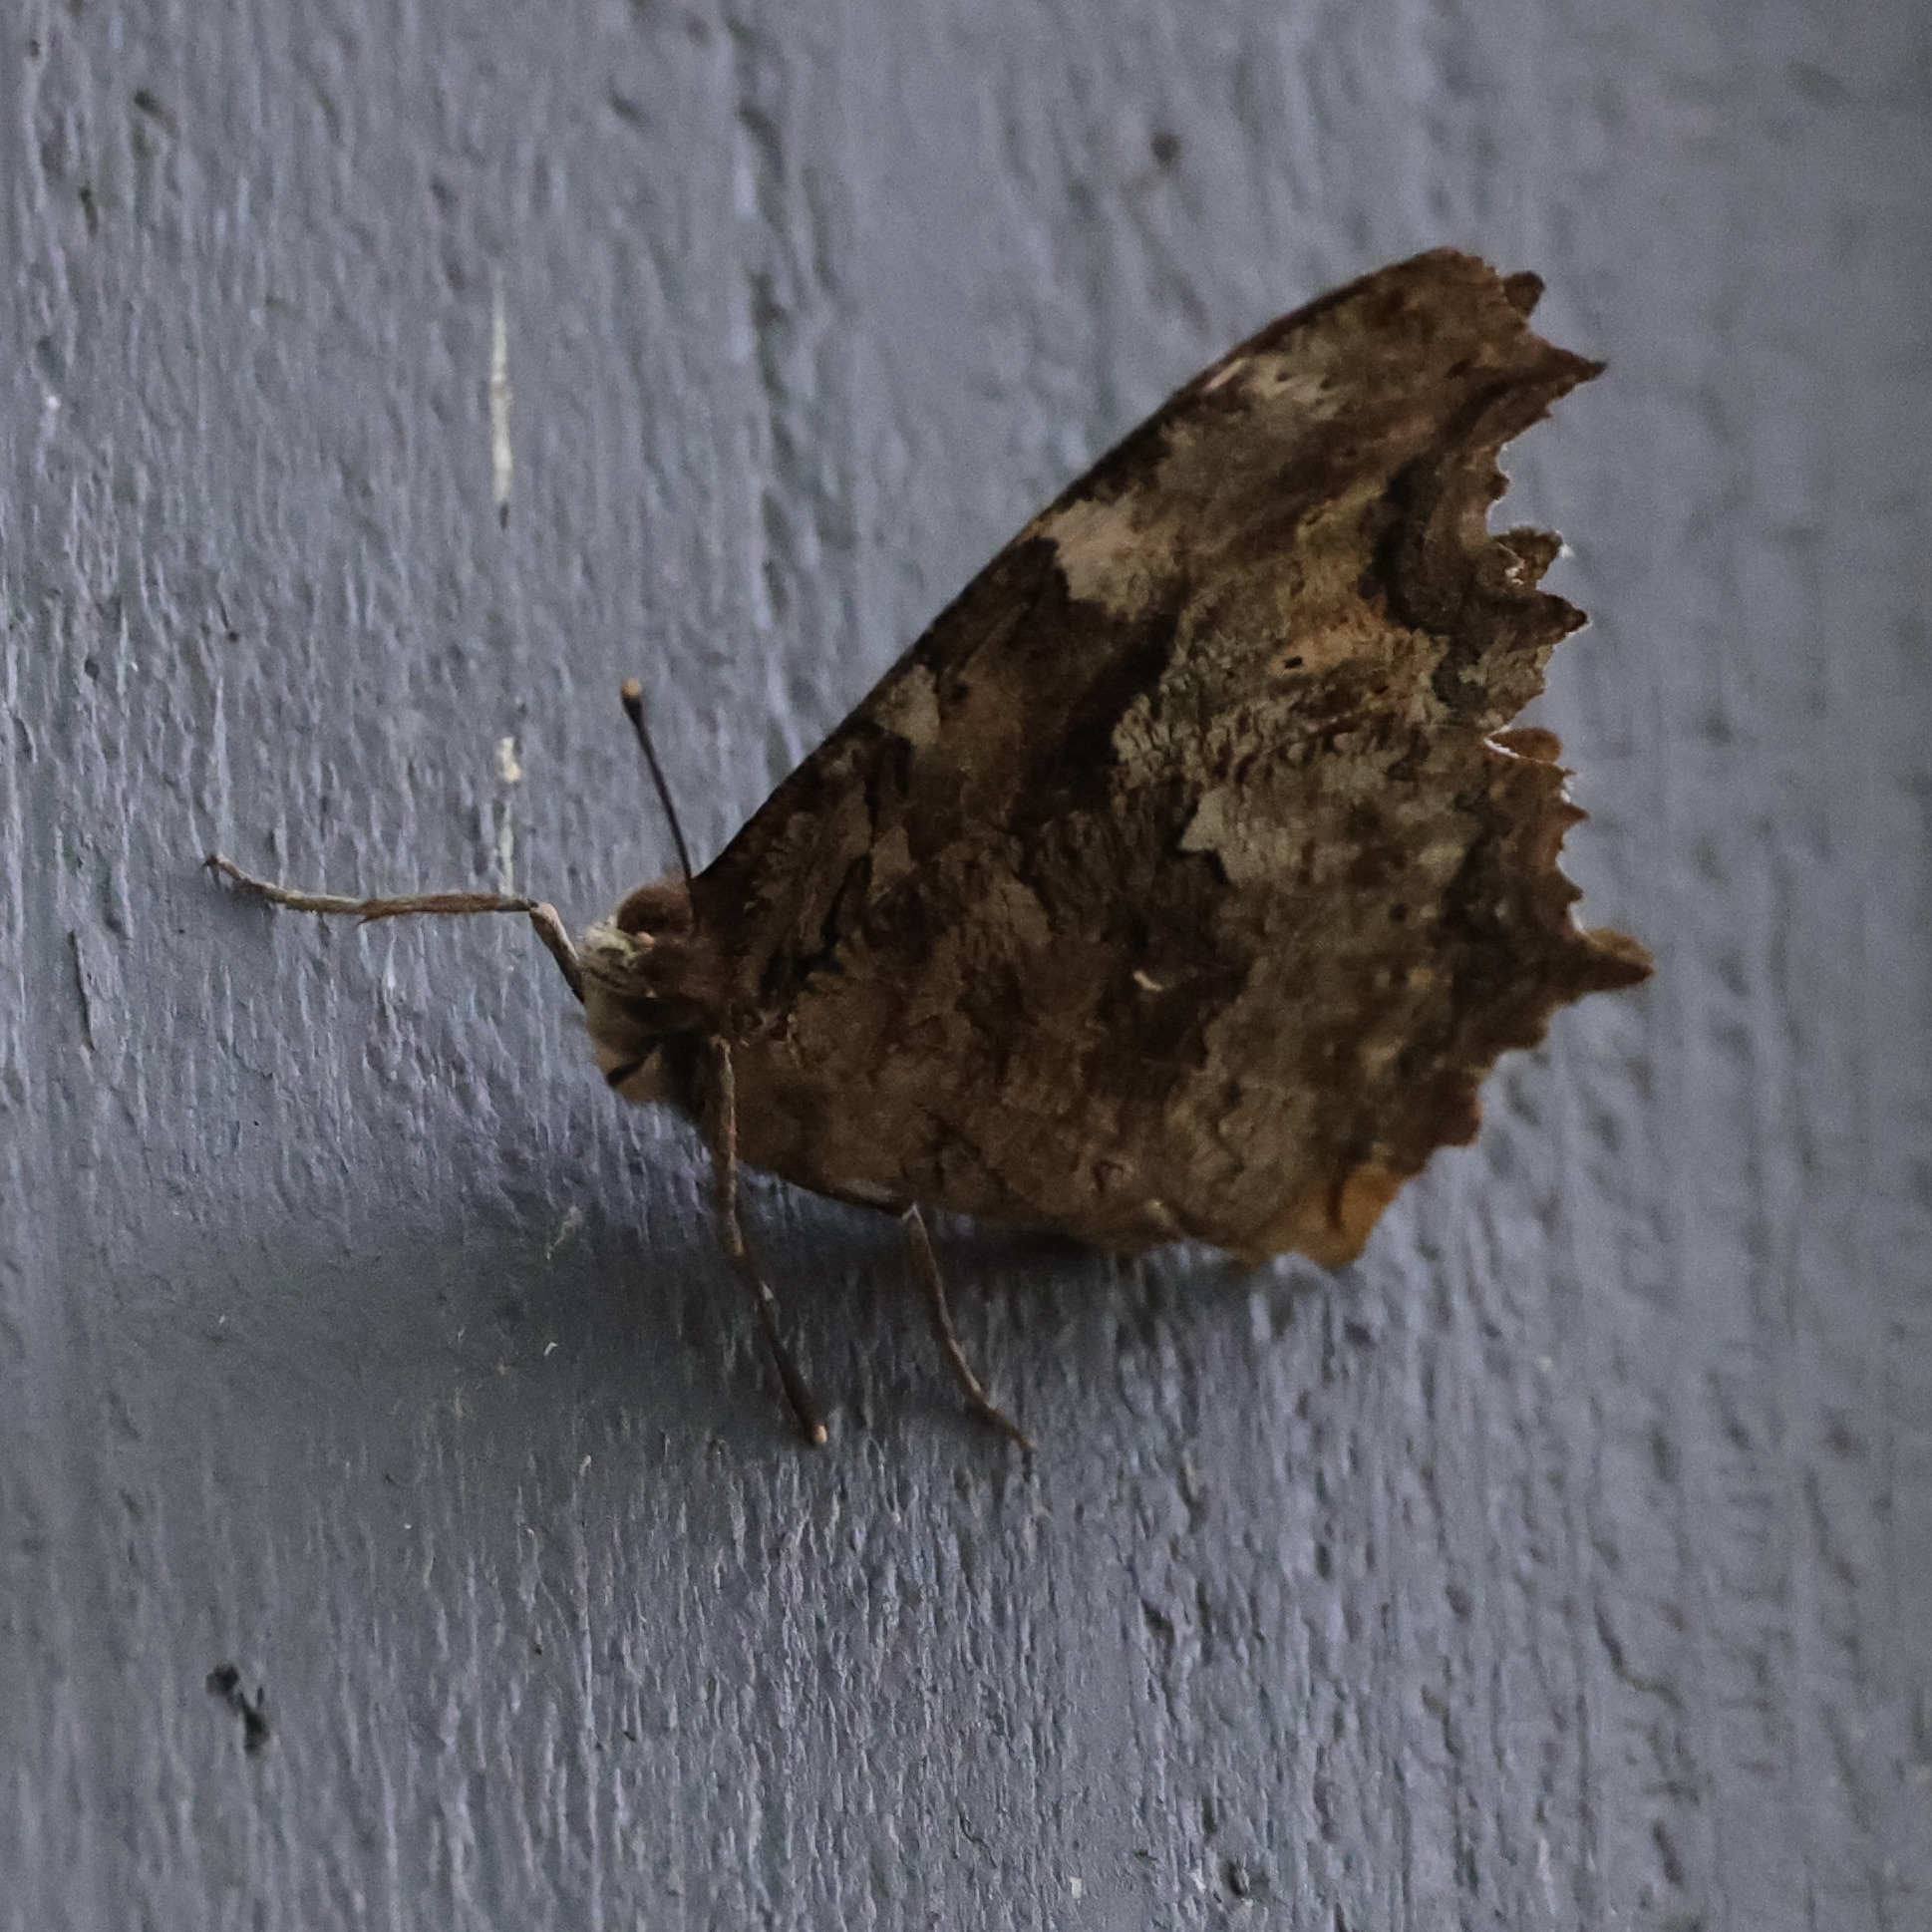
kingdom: Animalia
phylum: Arthropoda
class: Insecta
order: Lepidoptera
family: Nymphalidae
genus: Polygonia
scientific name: Polygonia vaualbum
